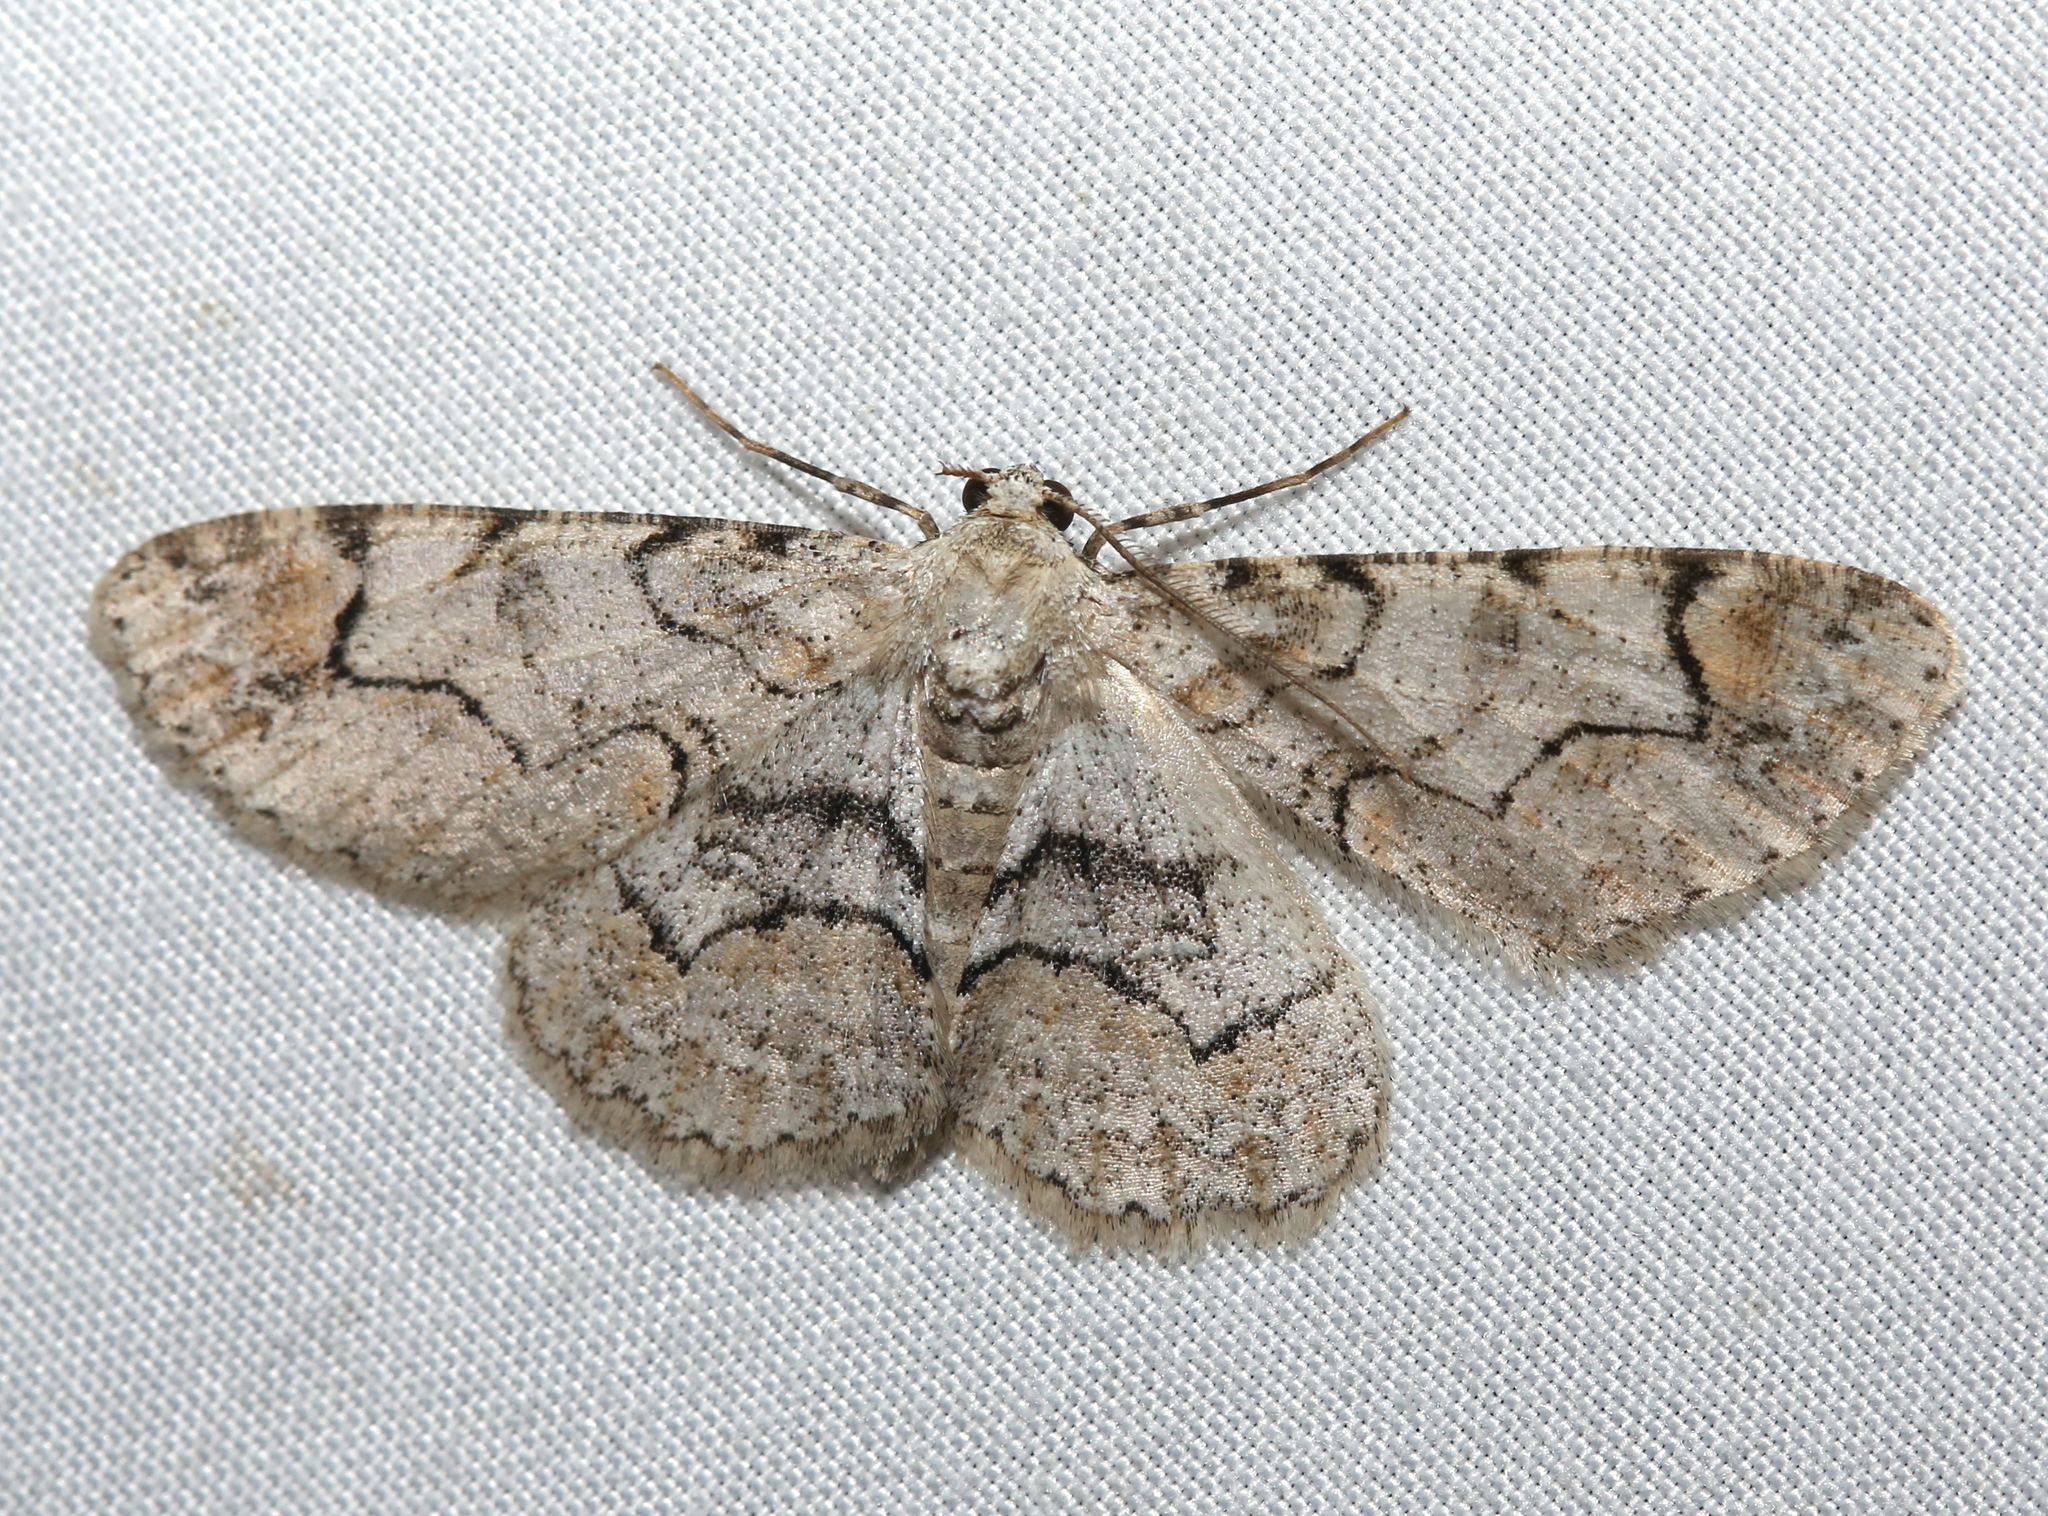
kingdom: Animalia
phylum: Arthropoda
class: Insecta
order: Lepidoptera
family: Geometridae
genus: Iridopsis
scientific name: Iridopsis larvaria
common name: Bent-line gray
